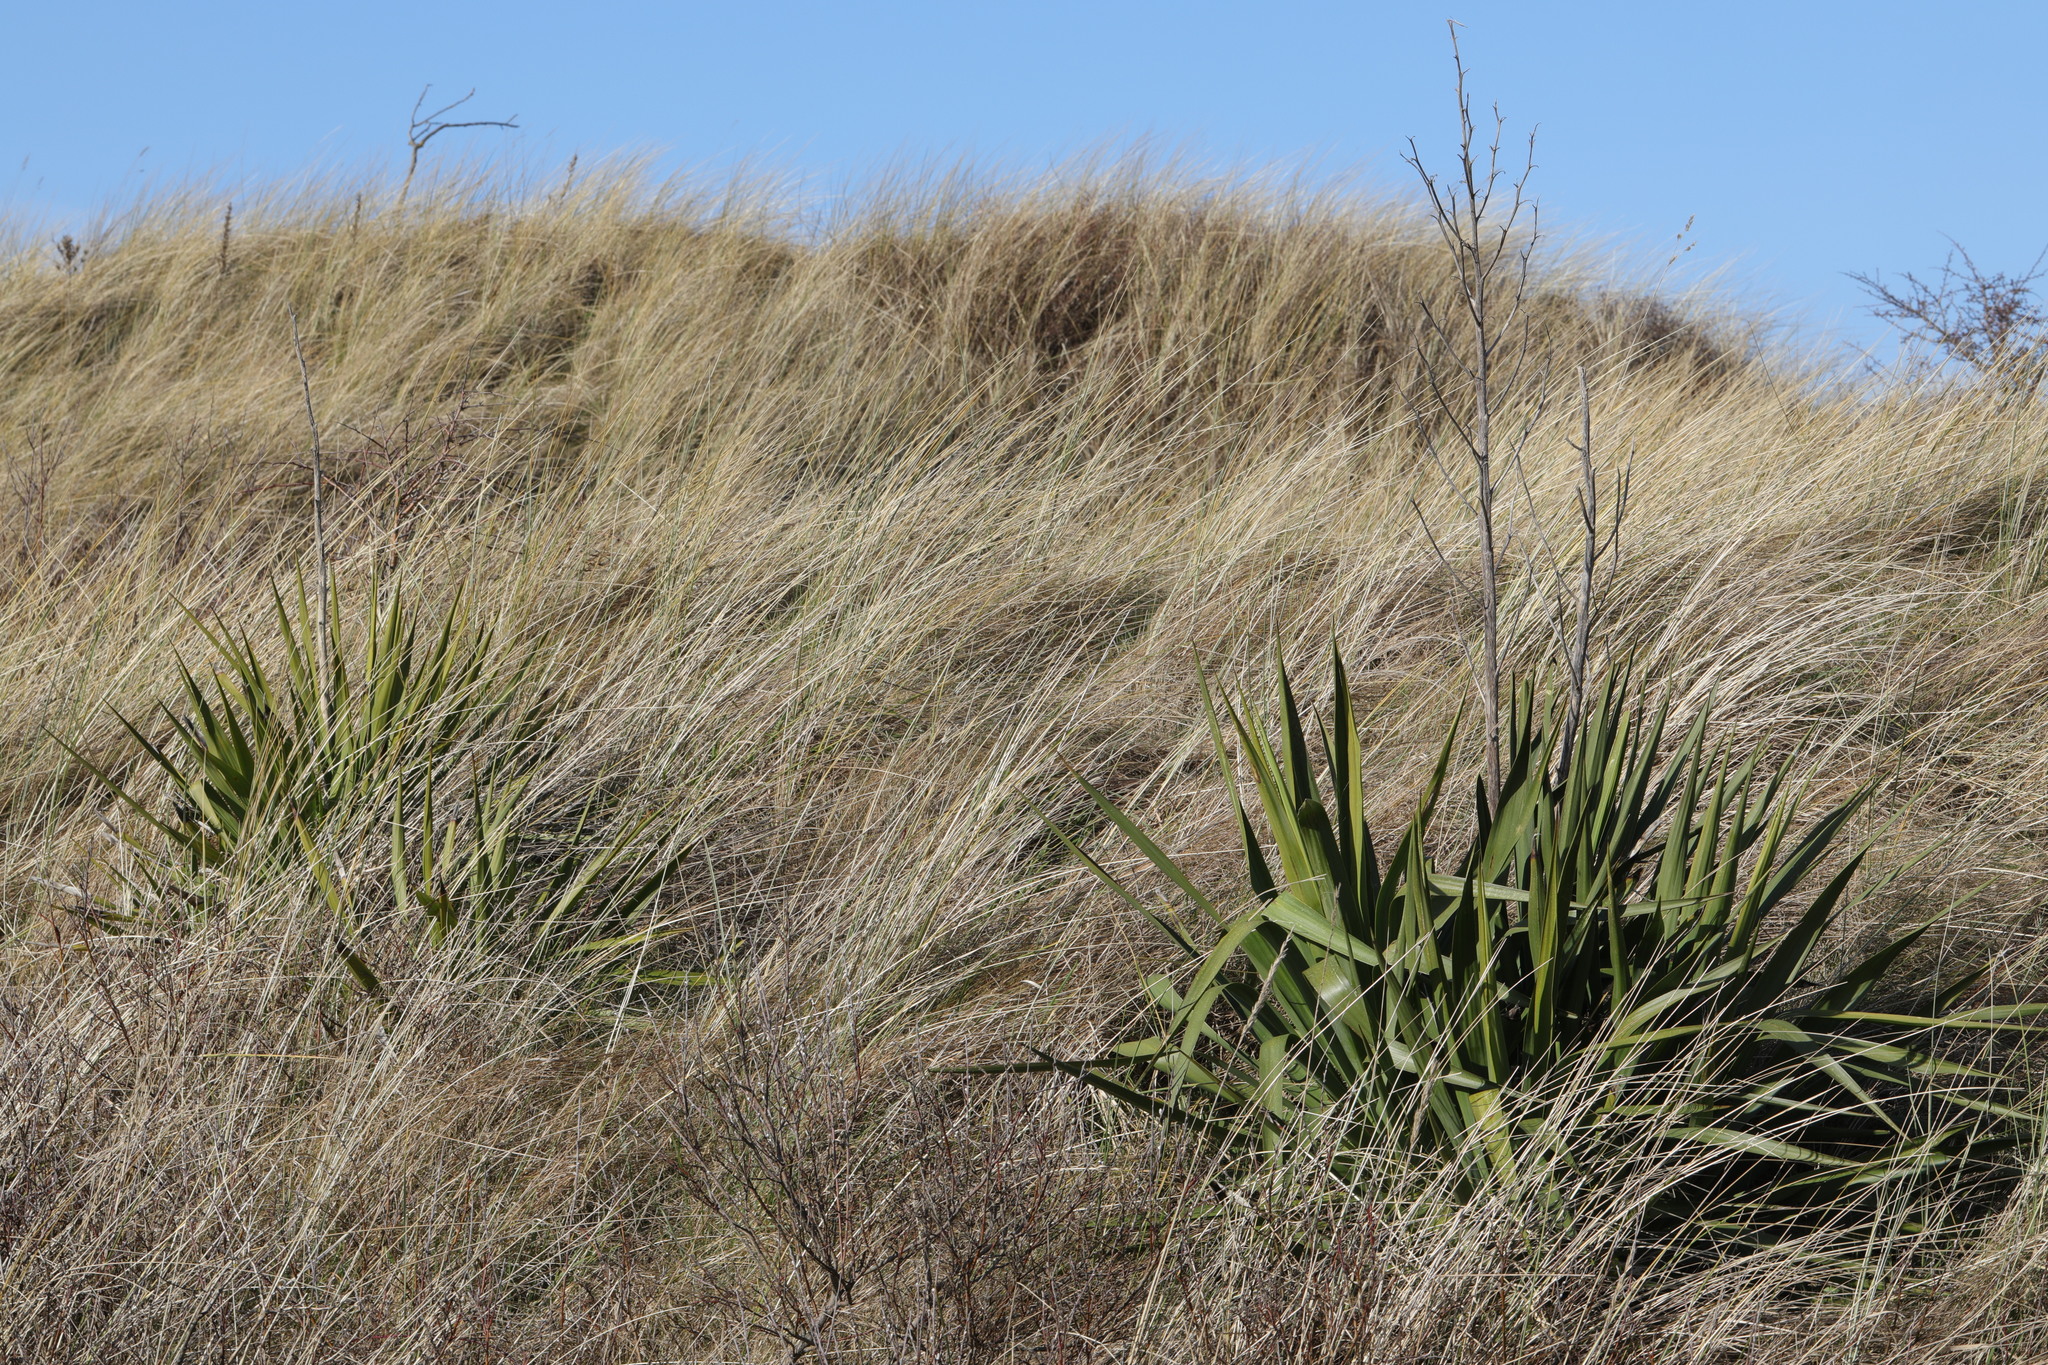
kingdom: Plantae
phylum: Tracheophyta
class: Liliopsida
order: Asparagales
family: Asphodelaceae
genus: Phormium
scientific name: Phormium tenax
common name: New zealand flax
